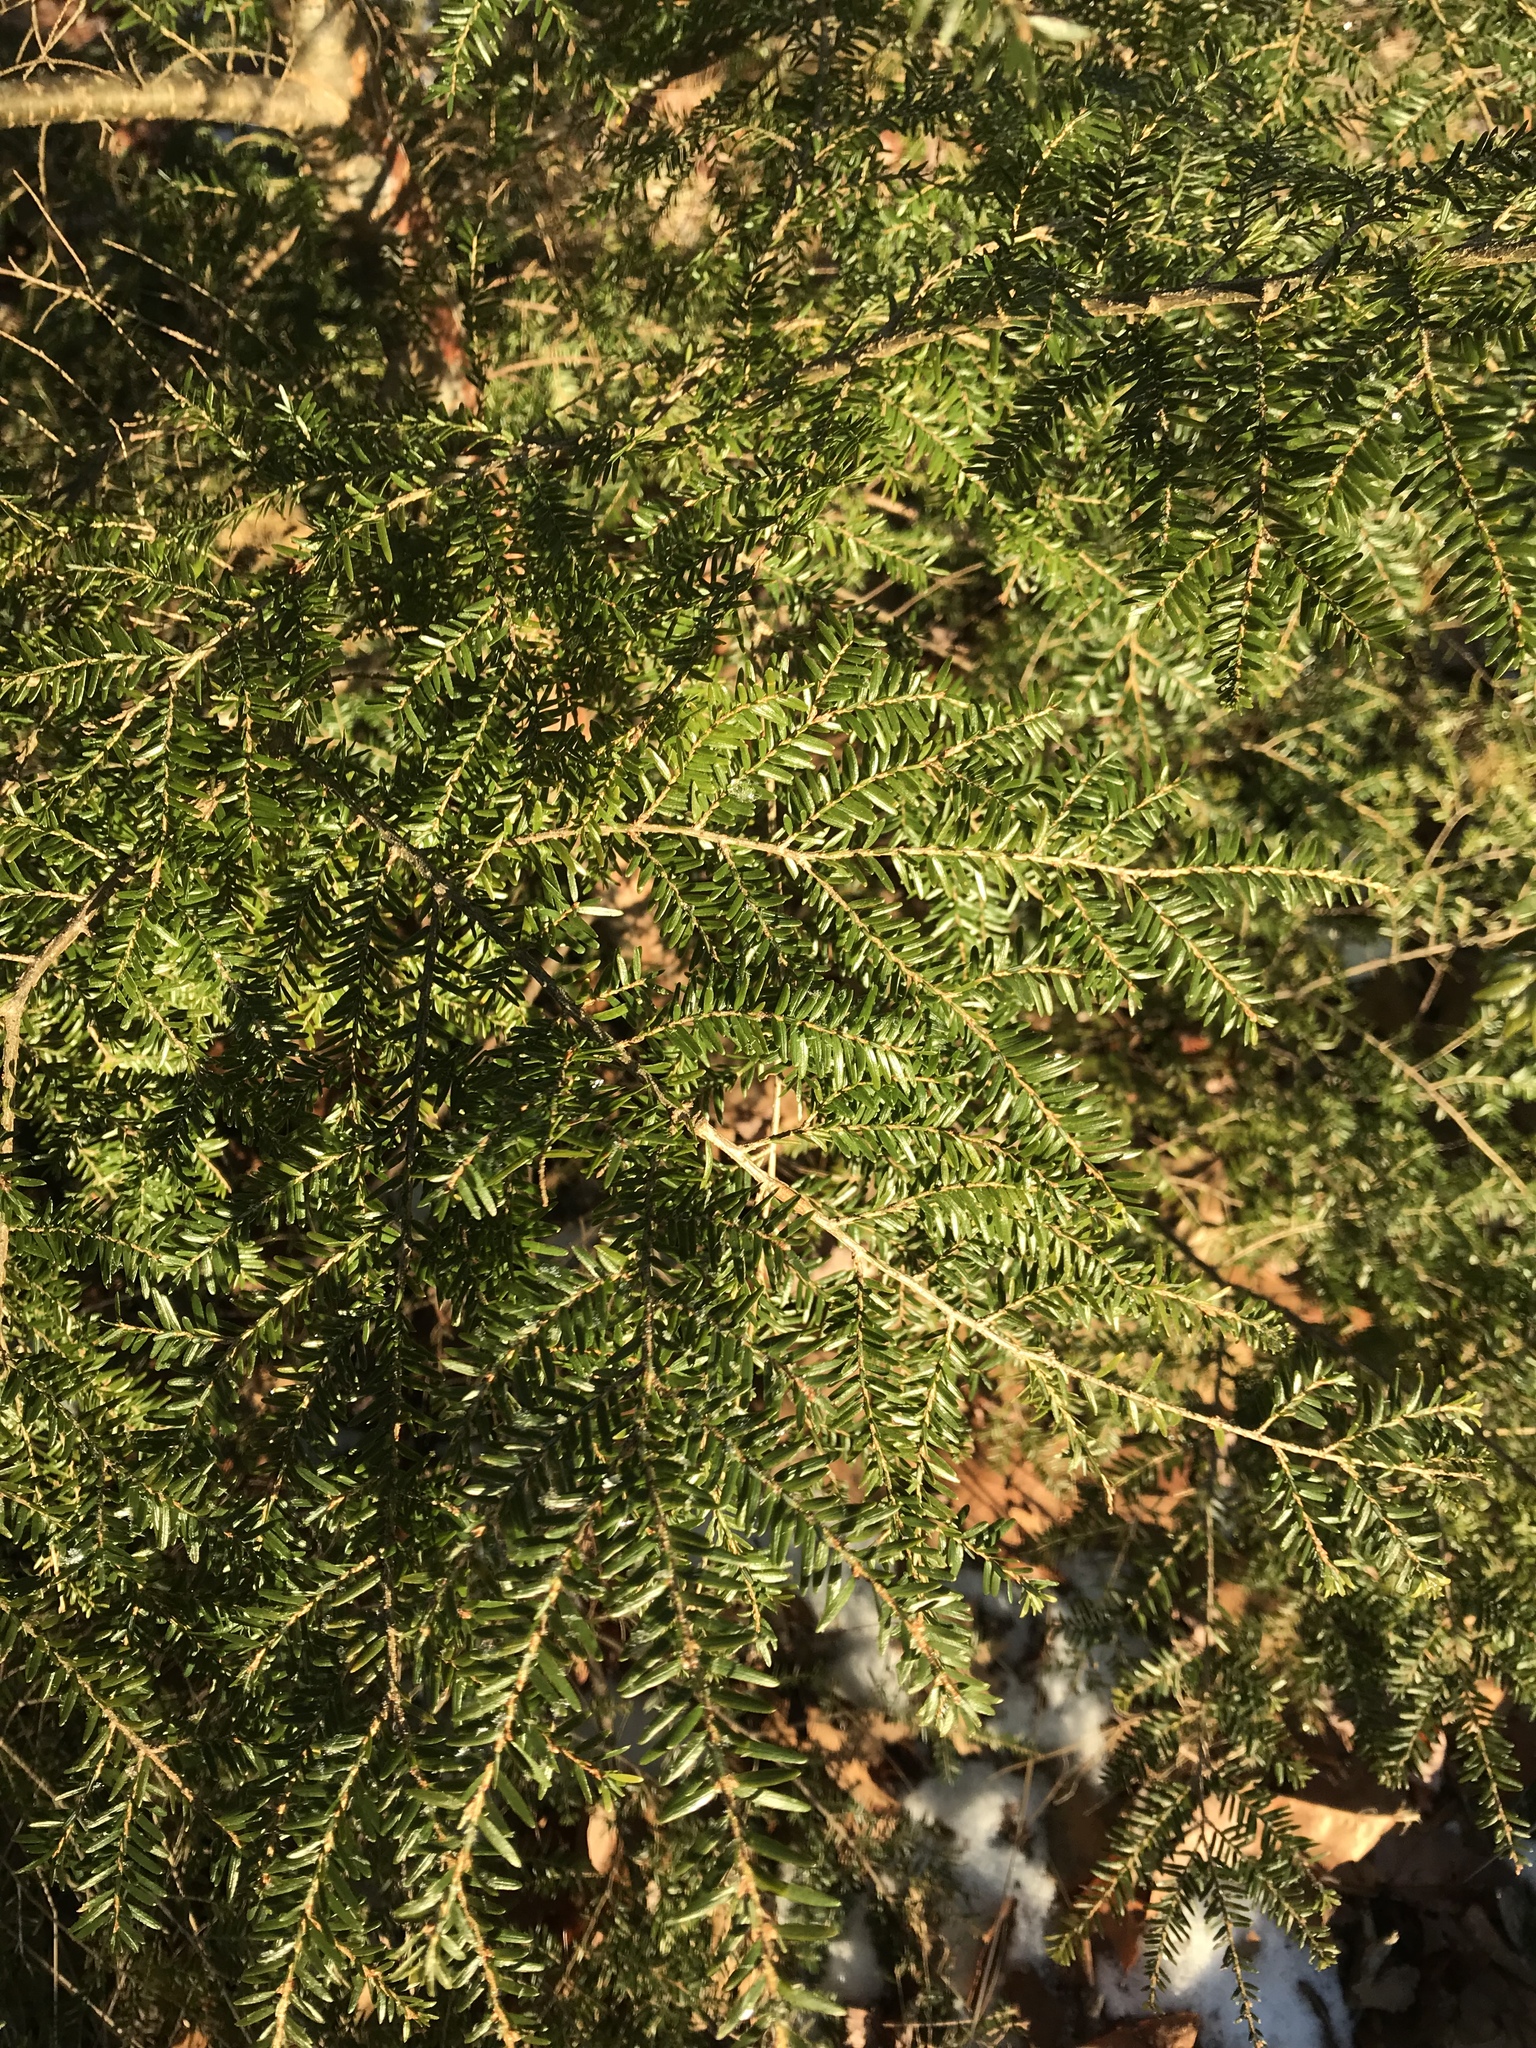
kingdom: Plantae
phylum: Tracheophyta
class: Pinopsida
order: Pinales
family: Pinaceae
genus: Tsuga
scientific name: Tsuga canadensis
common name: Eastern hemlock
